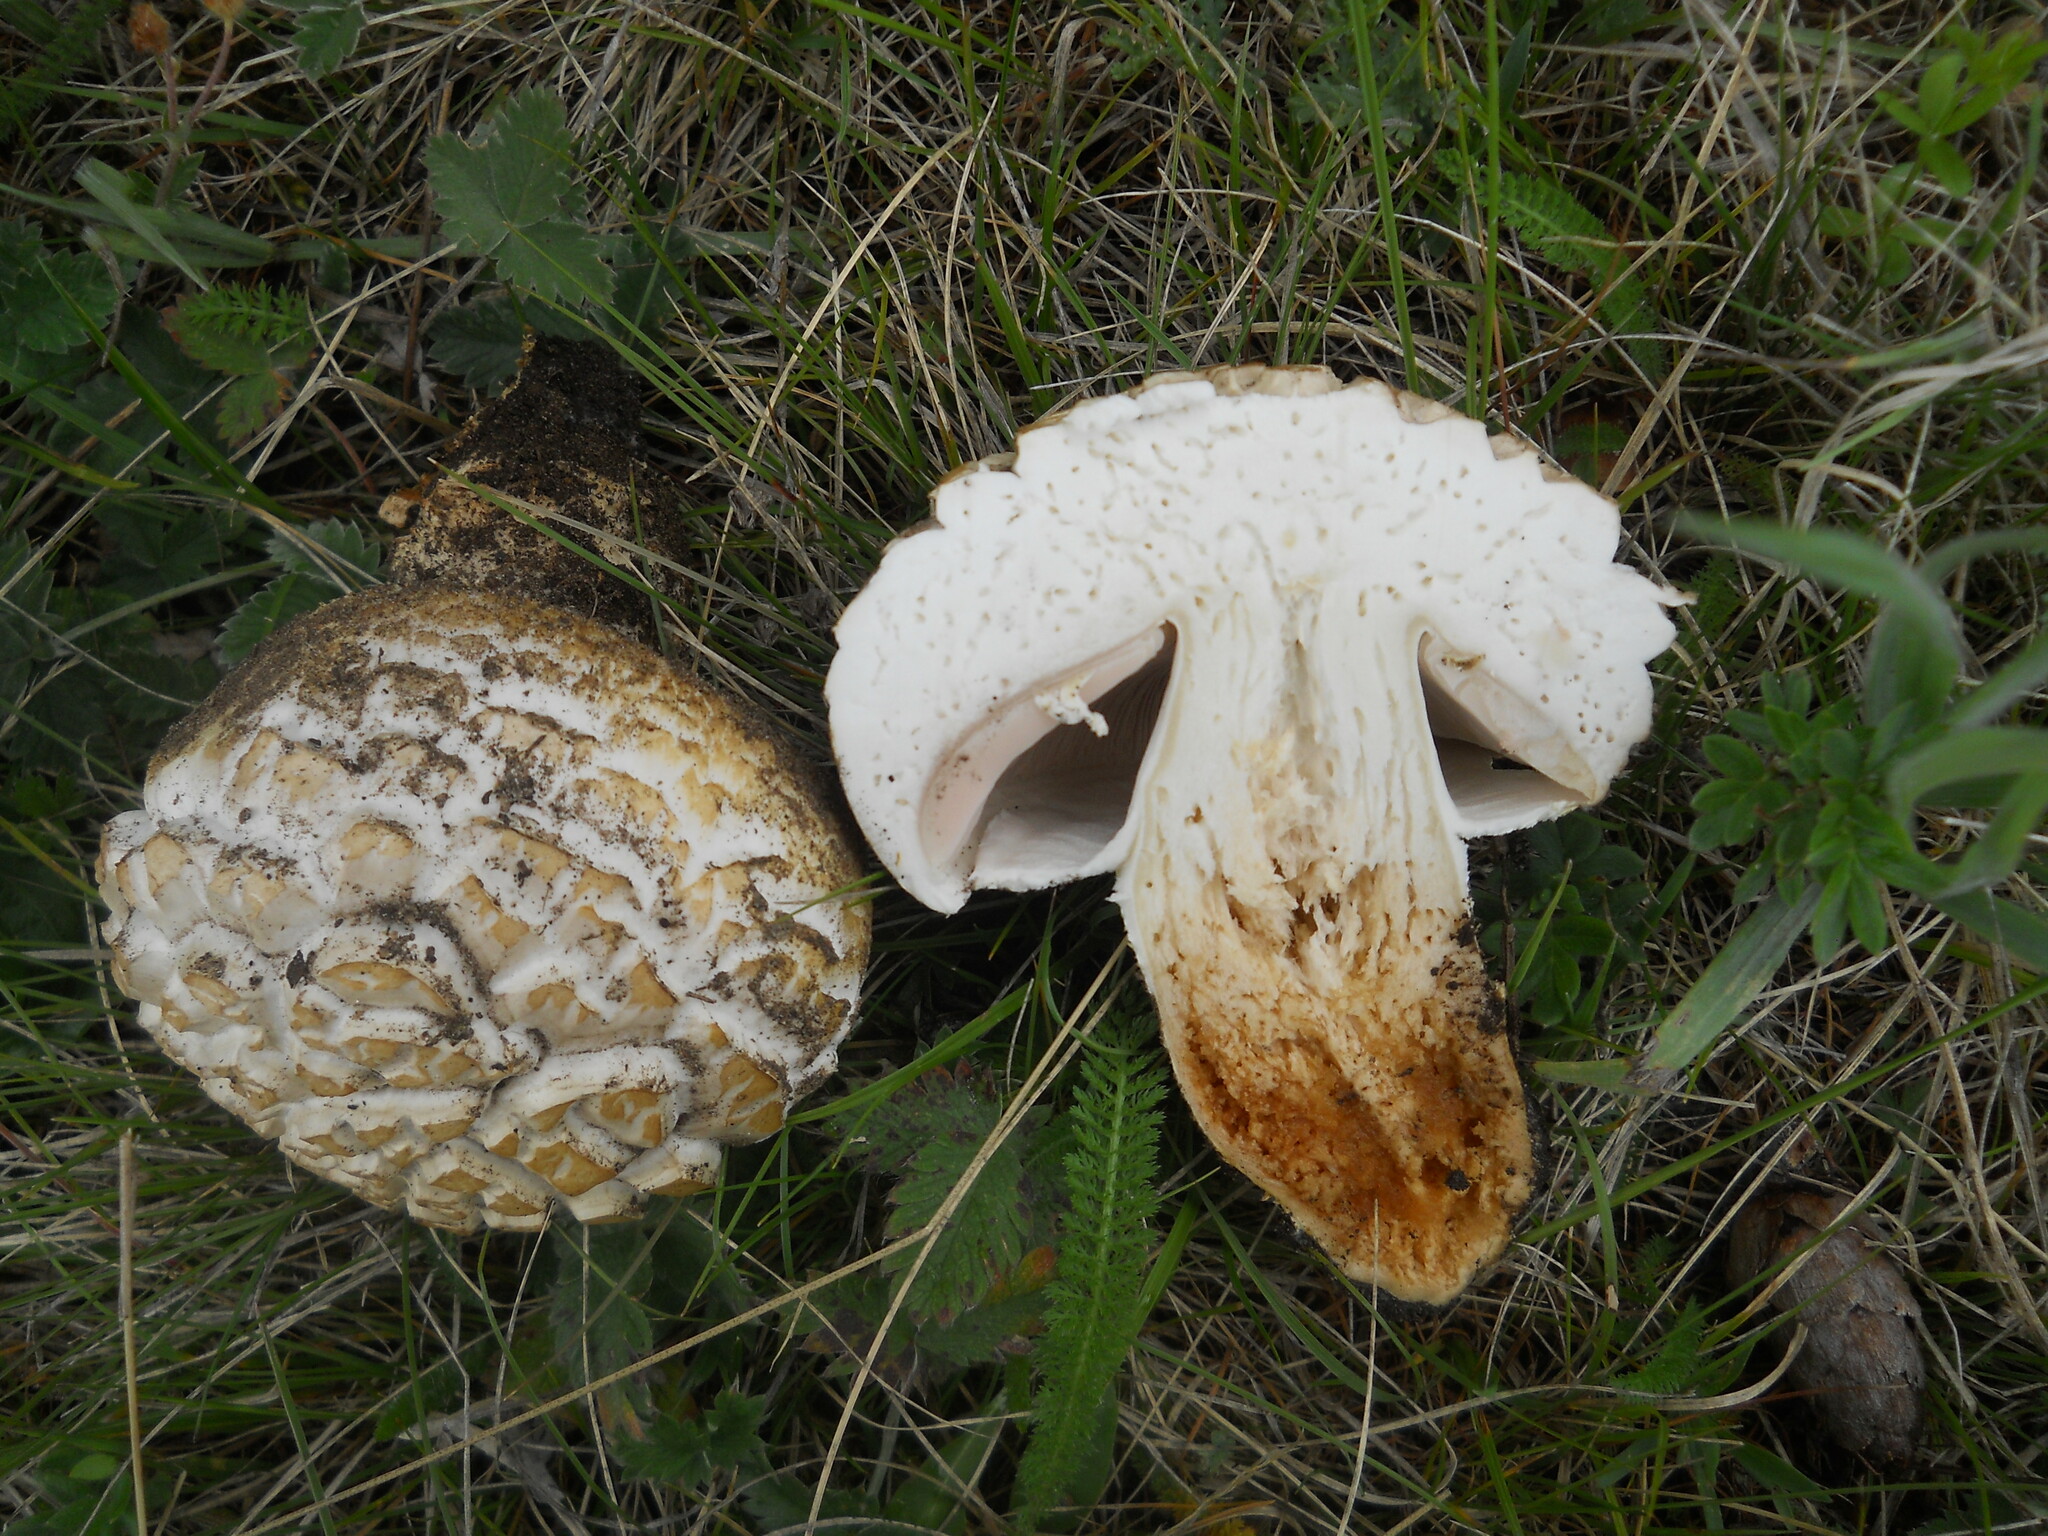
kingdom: Fungi
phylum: Basidiomycota
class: Agaricomycetes
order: Agaricales
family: Agaricaceae
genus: Agaricus
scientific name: Agaricus praerimosus
